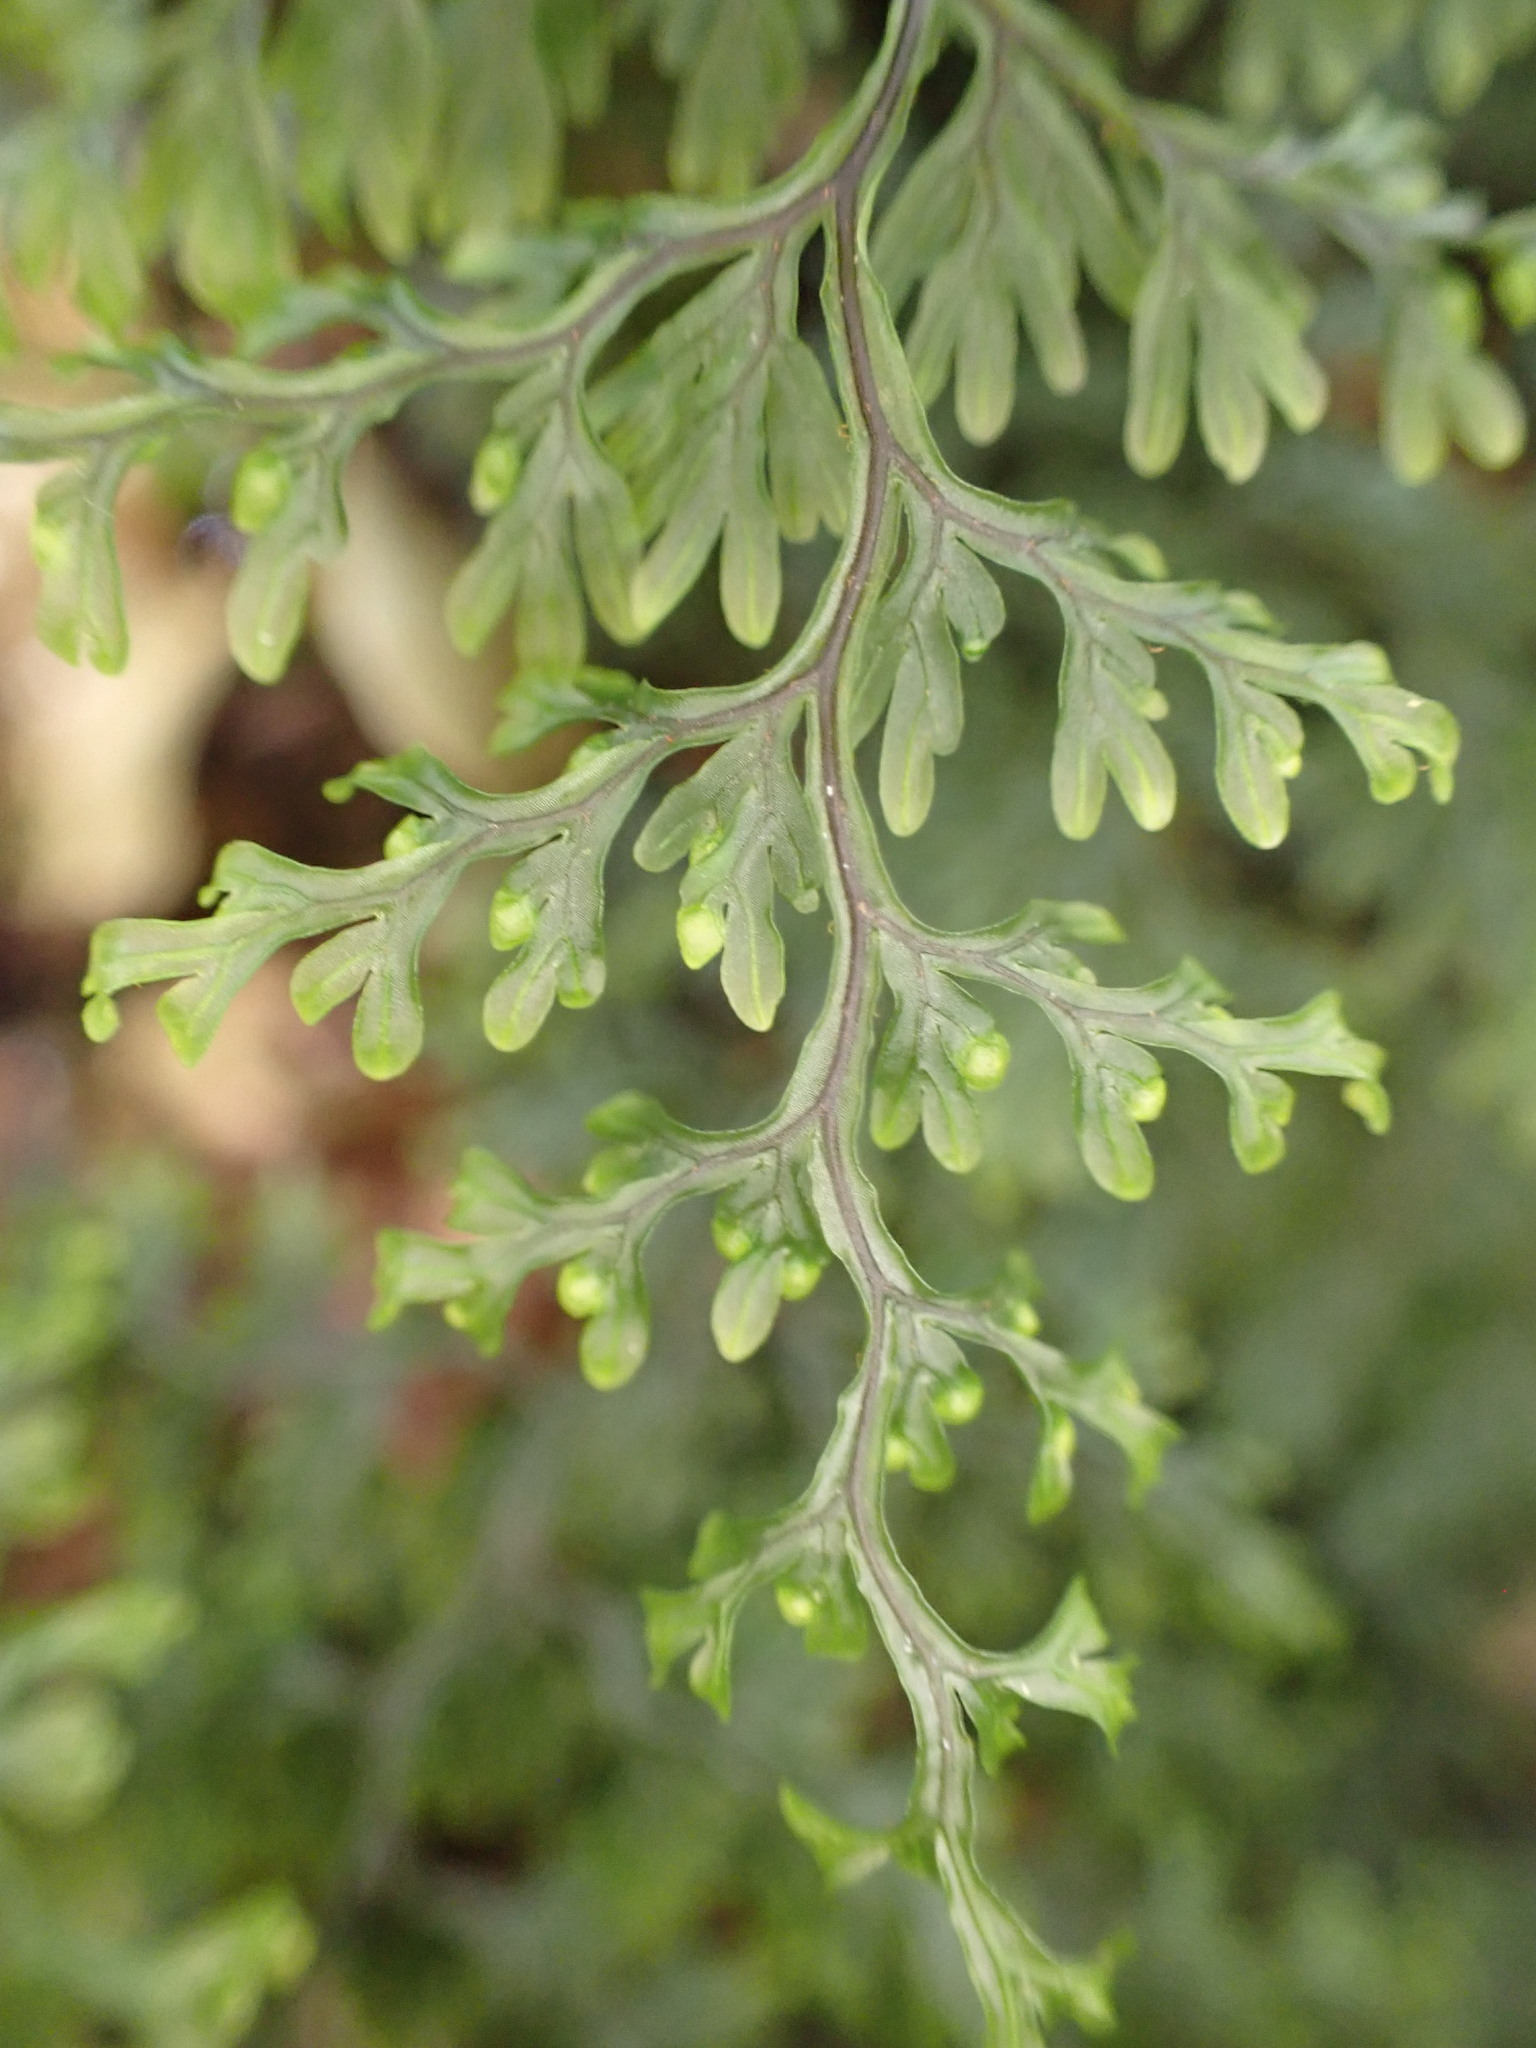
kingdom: Plantae
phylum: Tracheophyta
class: Polypodiopsida
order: Hymenophyllales
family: Hymenophyllaceae
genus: Hymenophyllum
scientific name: Hymenophyllum villosum
